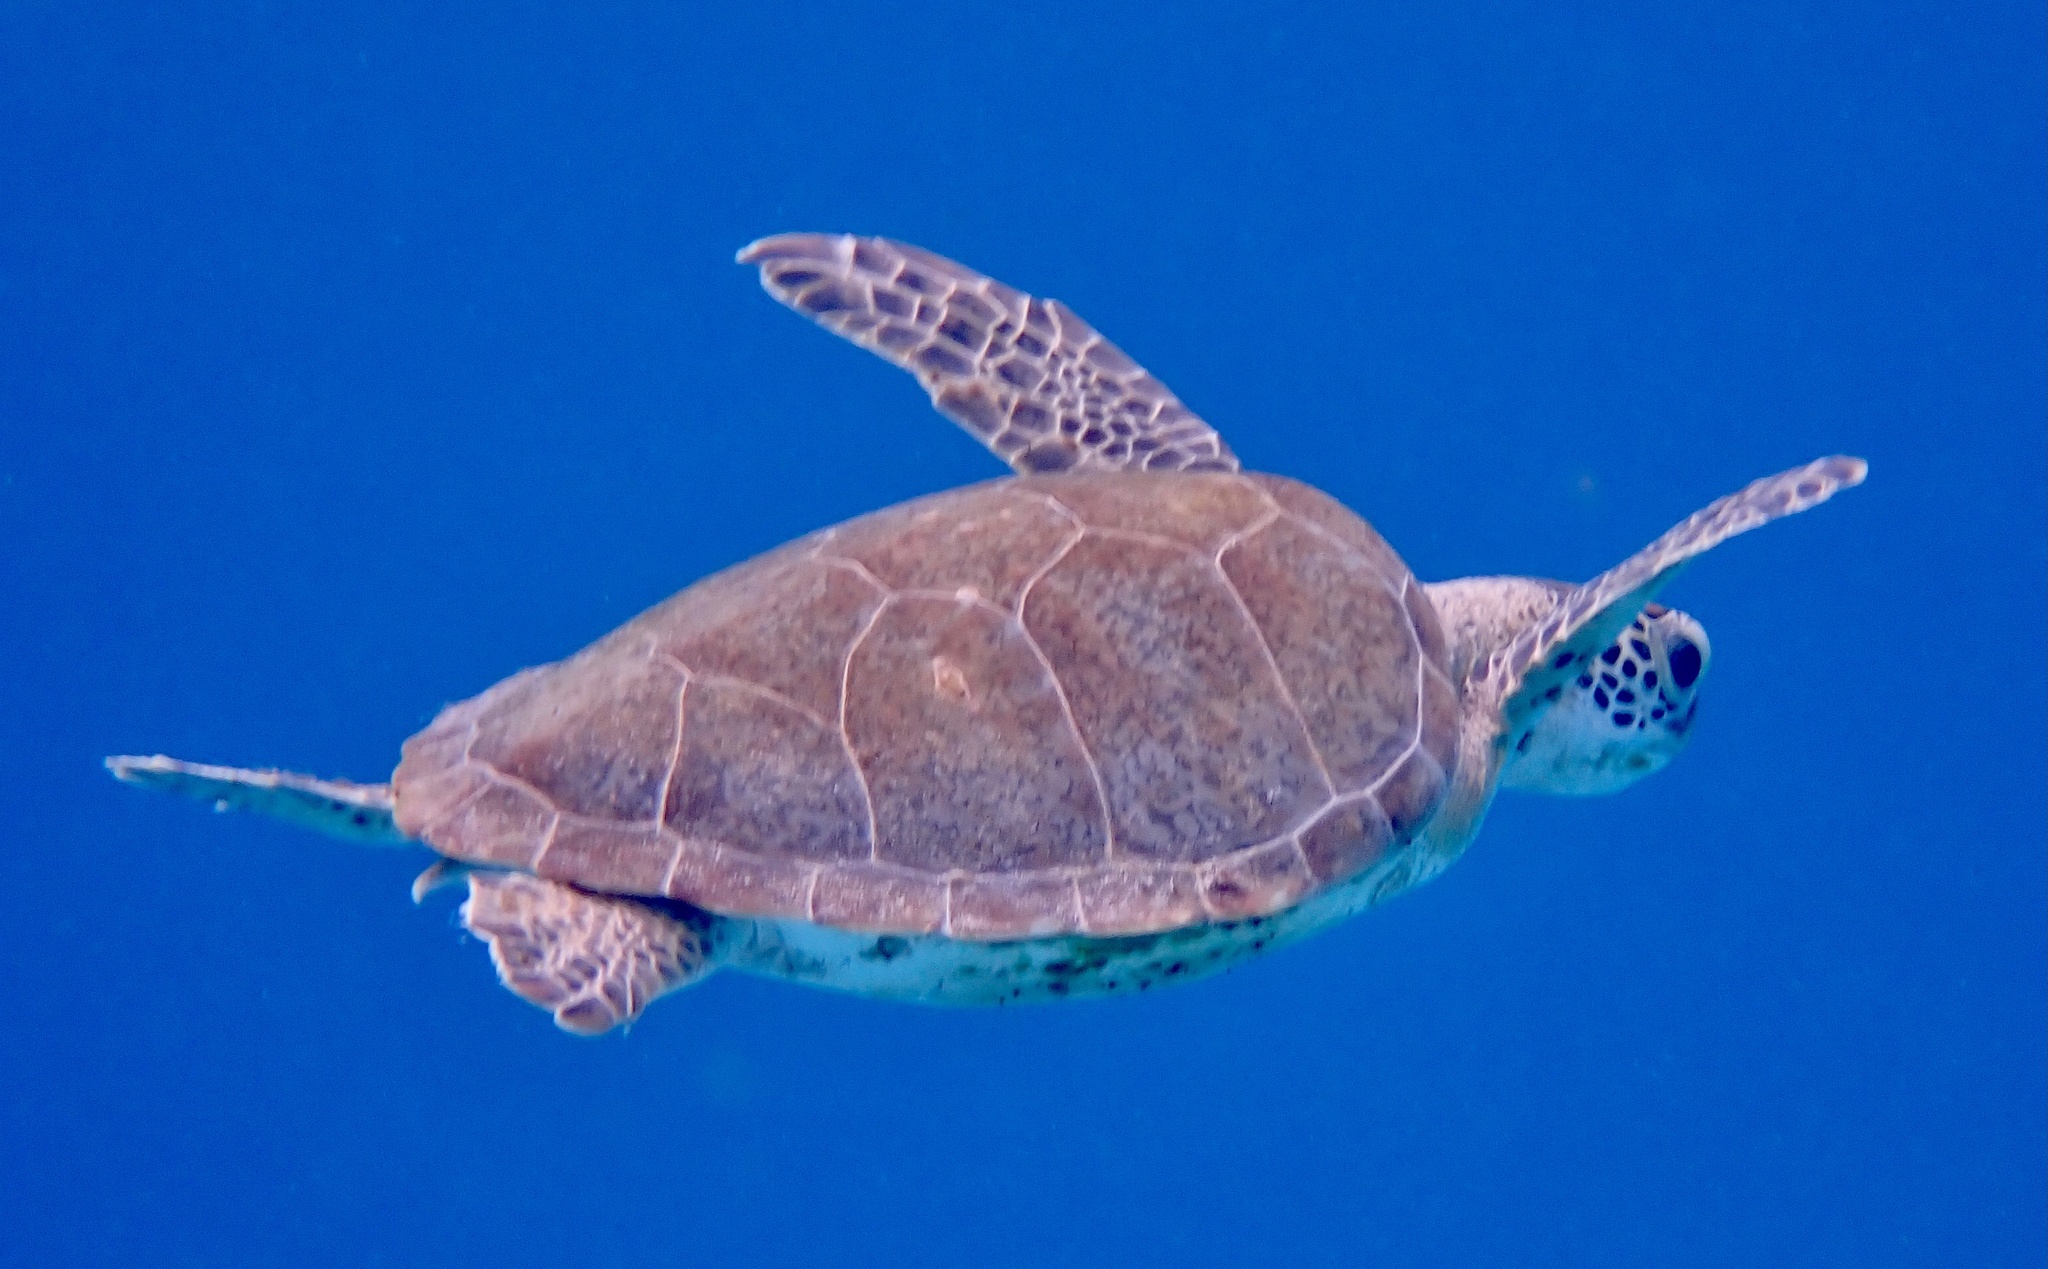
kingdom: Animalia
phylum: Chordata
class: Testudines
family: Cheloniidae
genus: Chelonia
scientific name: Chelonia mydas
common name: Green turtle
